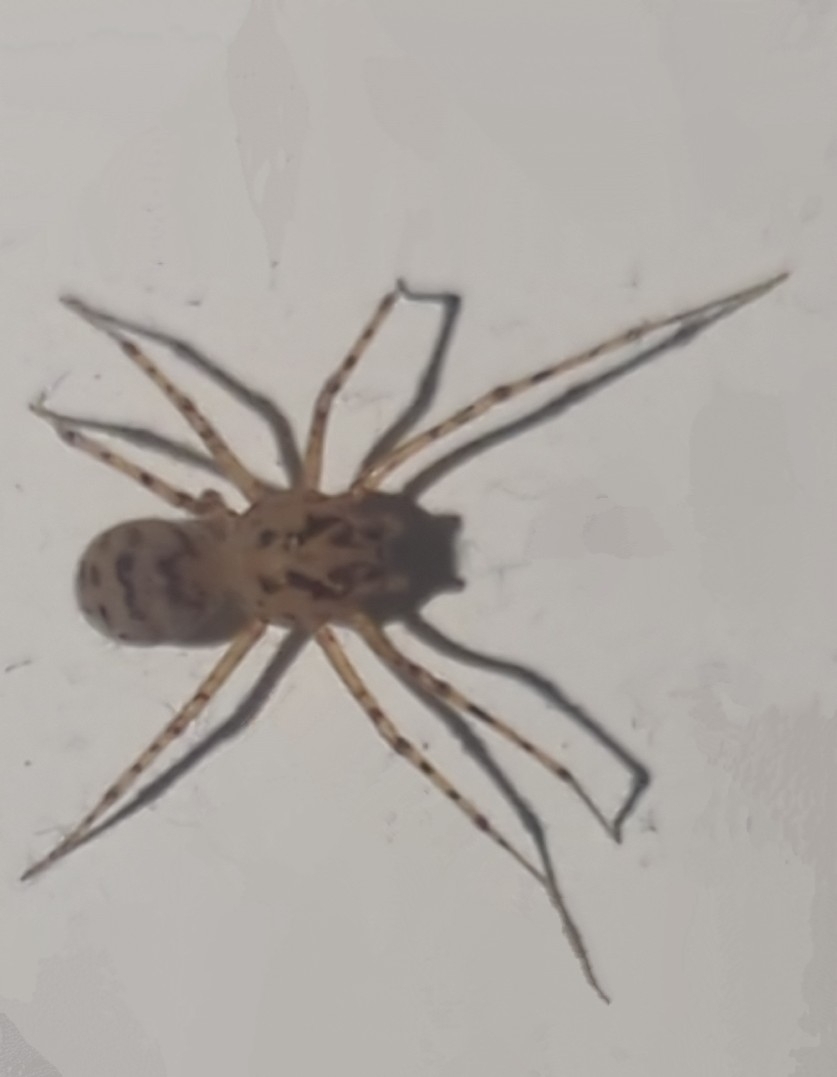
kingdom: Animalia
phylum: Arthropoda
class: Arachnida
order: Araneae
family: Scytodidae
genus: Scytodes
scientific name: Scytodes thoracica
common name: Spitting spider
